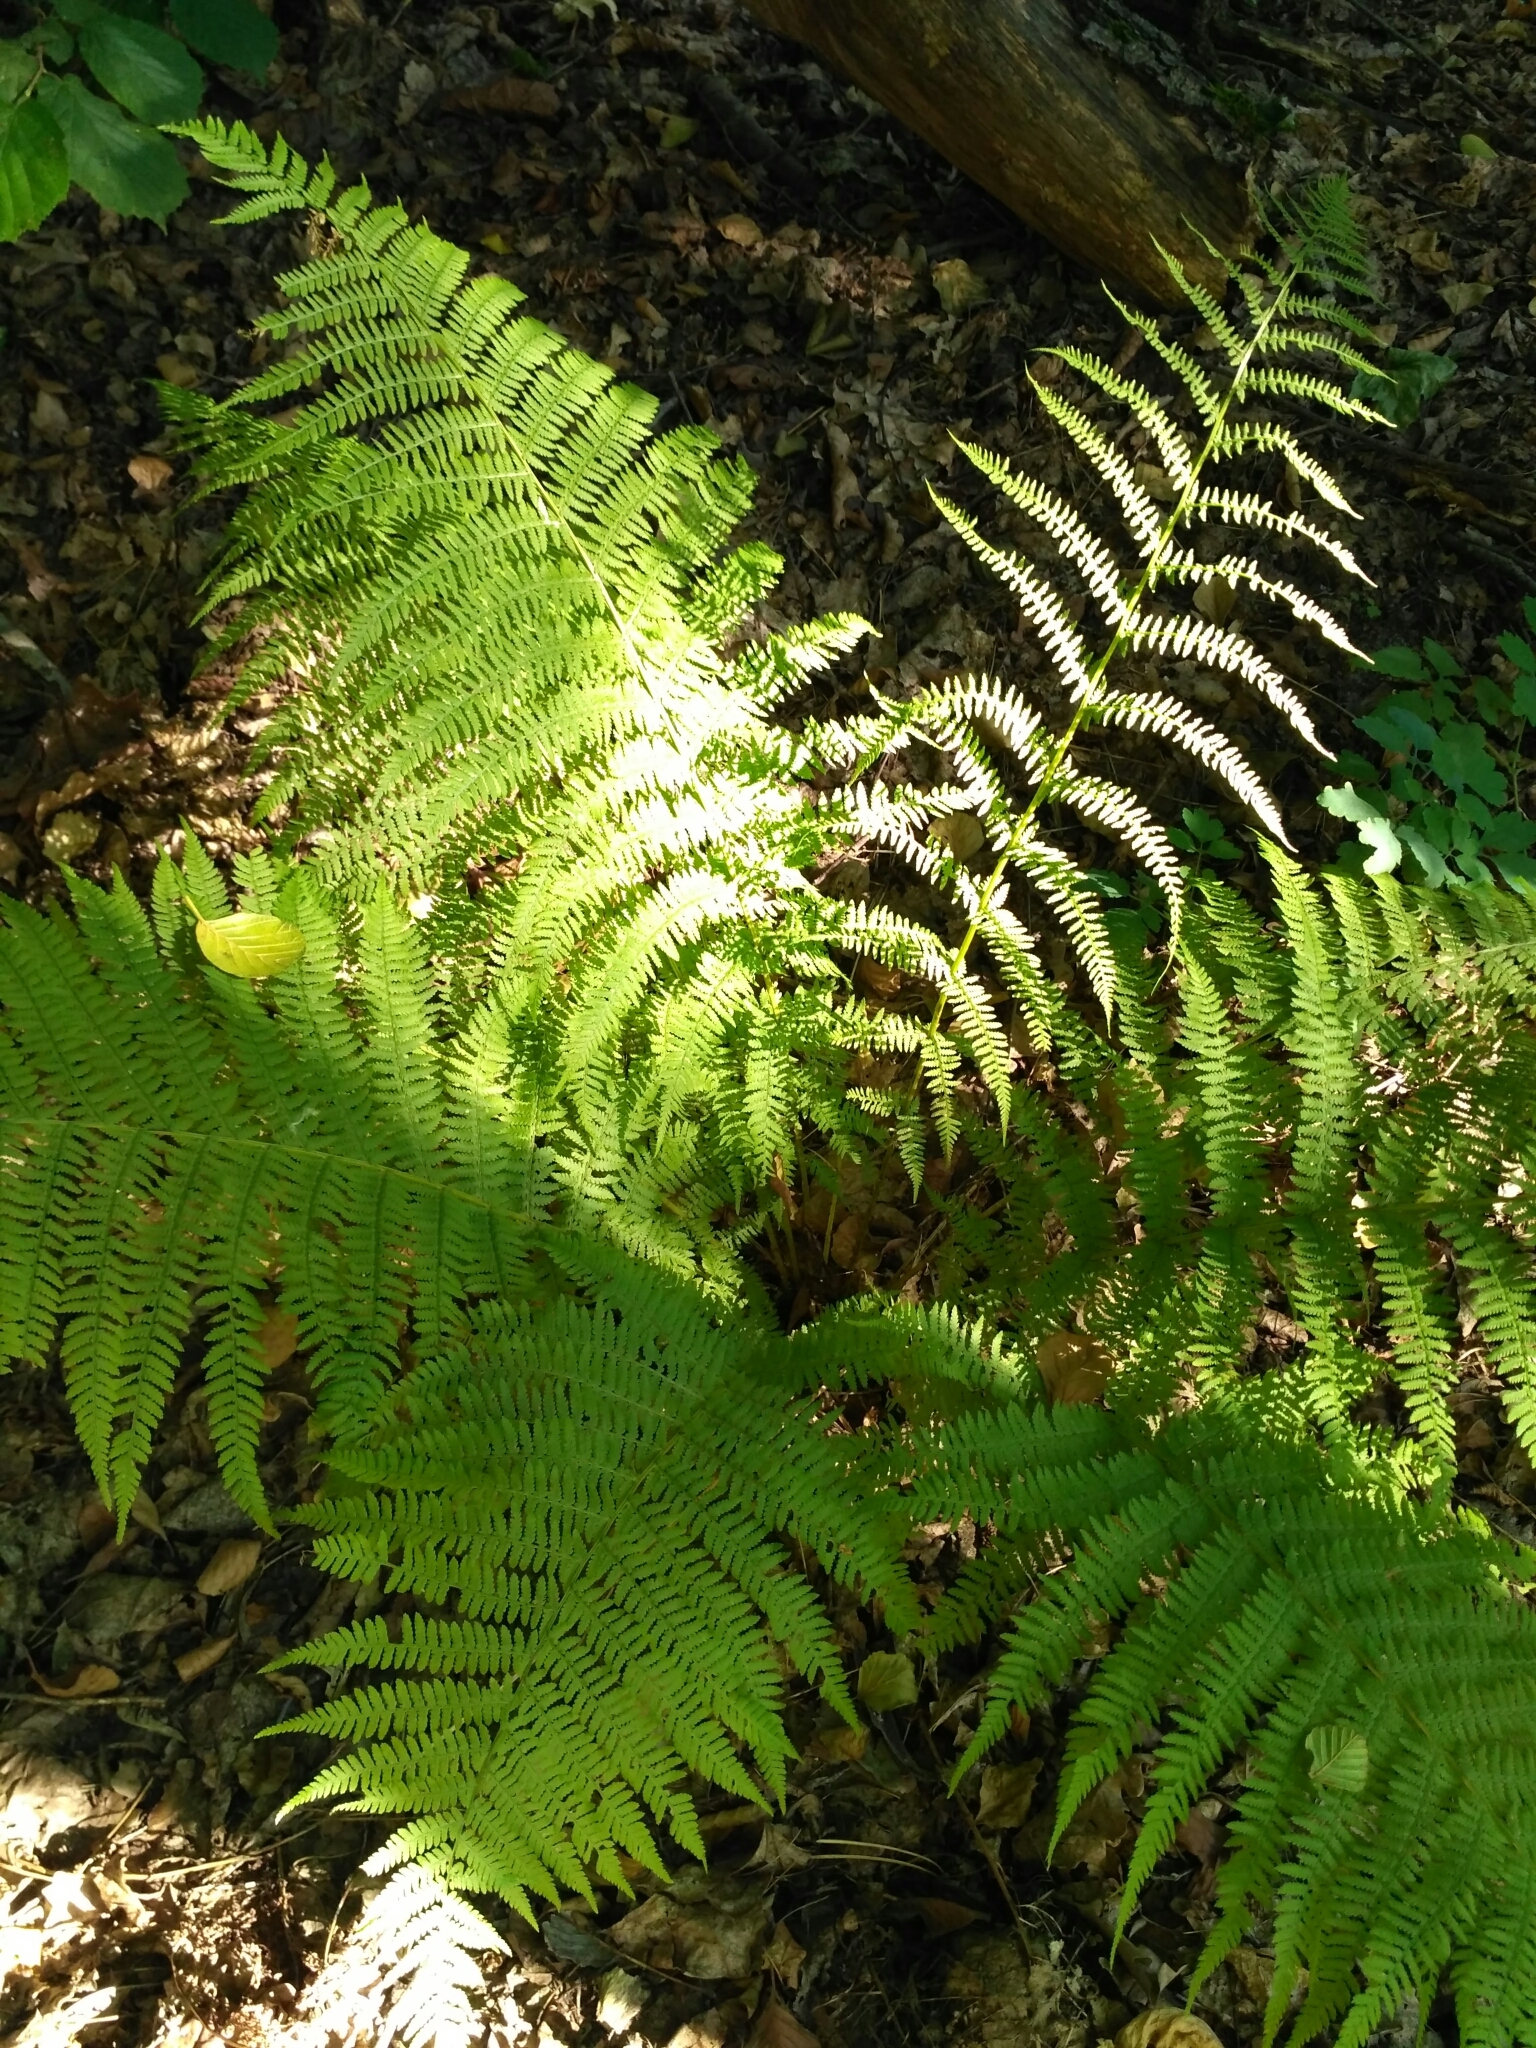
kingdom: Plantae
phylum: Tracheophyta
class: Polypodiopsida
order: Polypodiales
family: Athyriaceae
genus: Athyrium
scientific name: Athyrium filix-femina
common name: Lady fern
